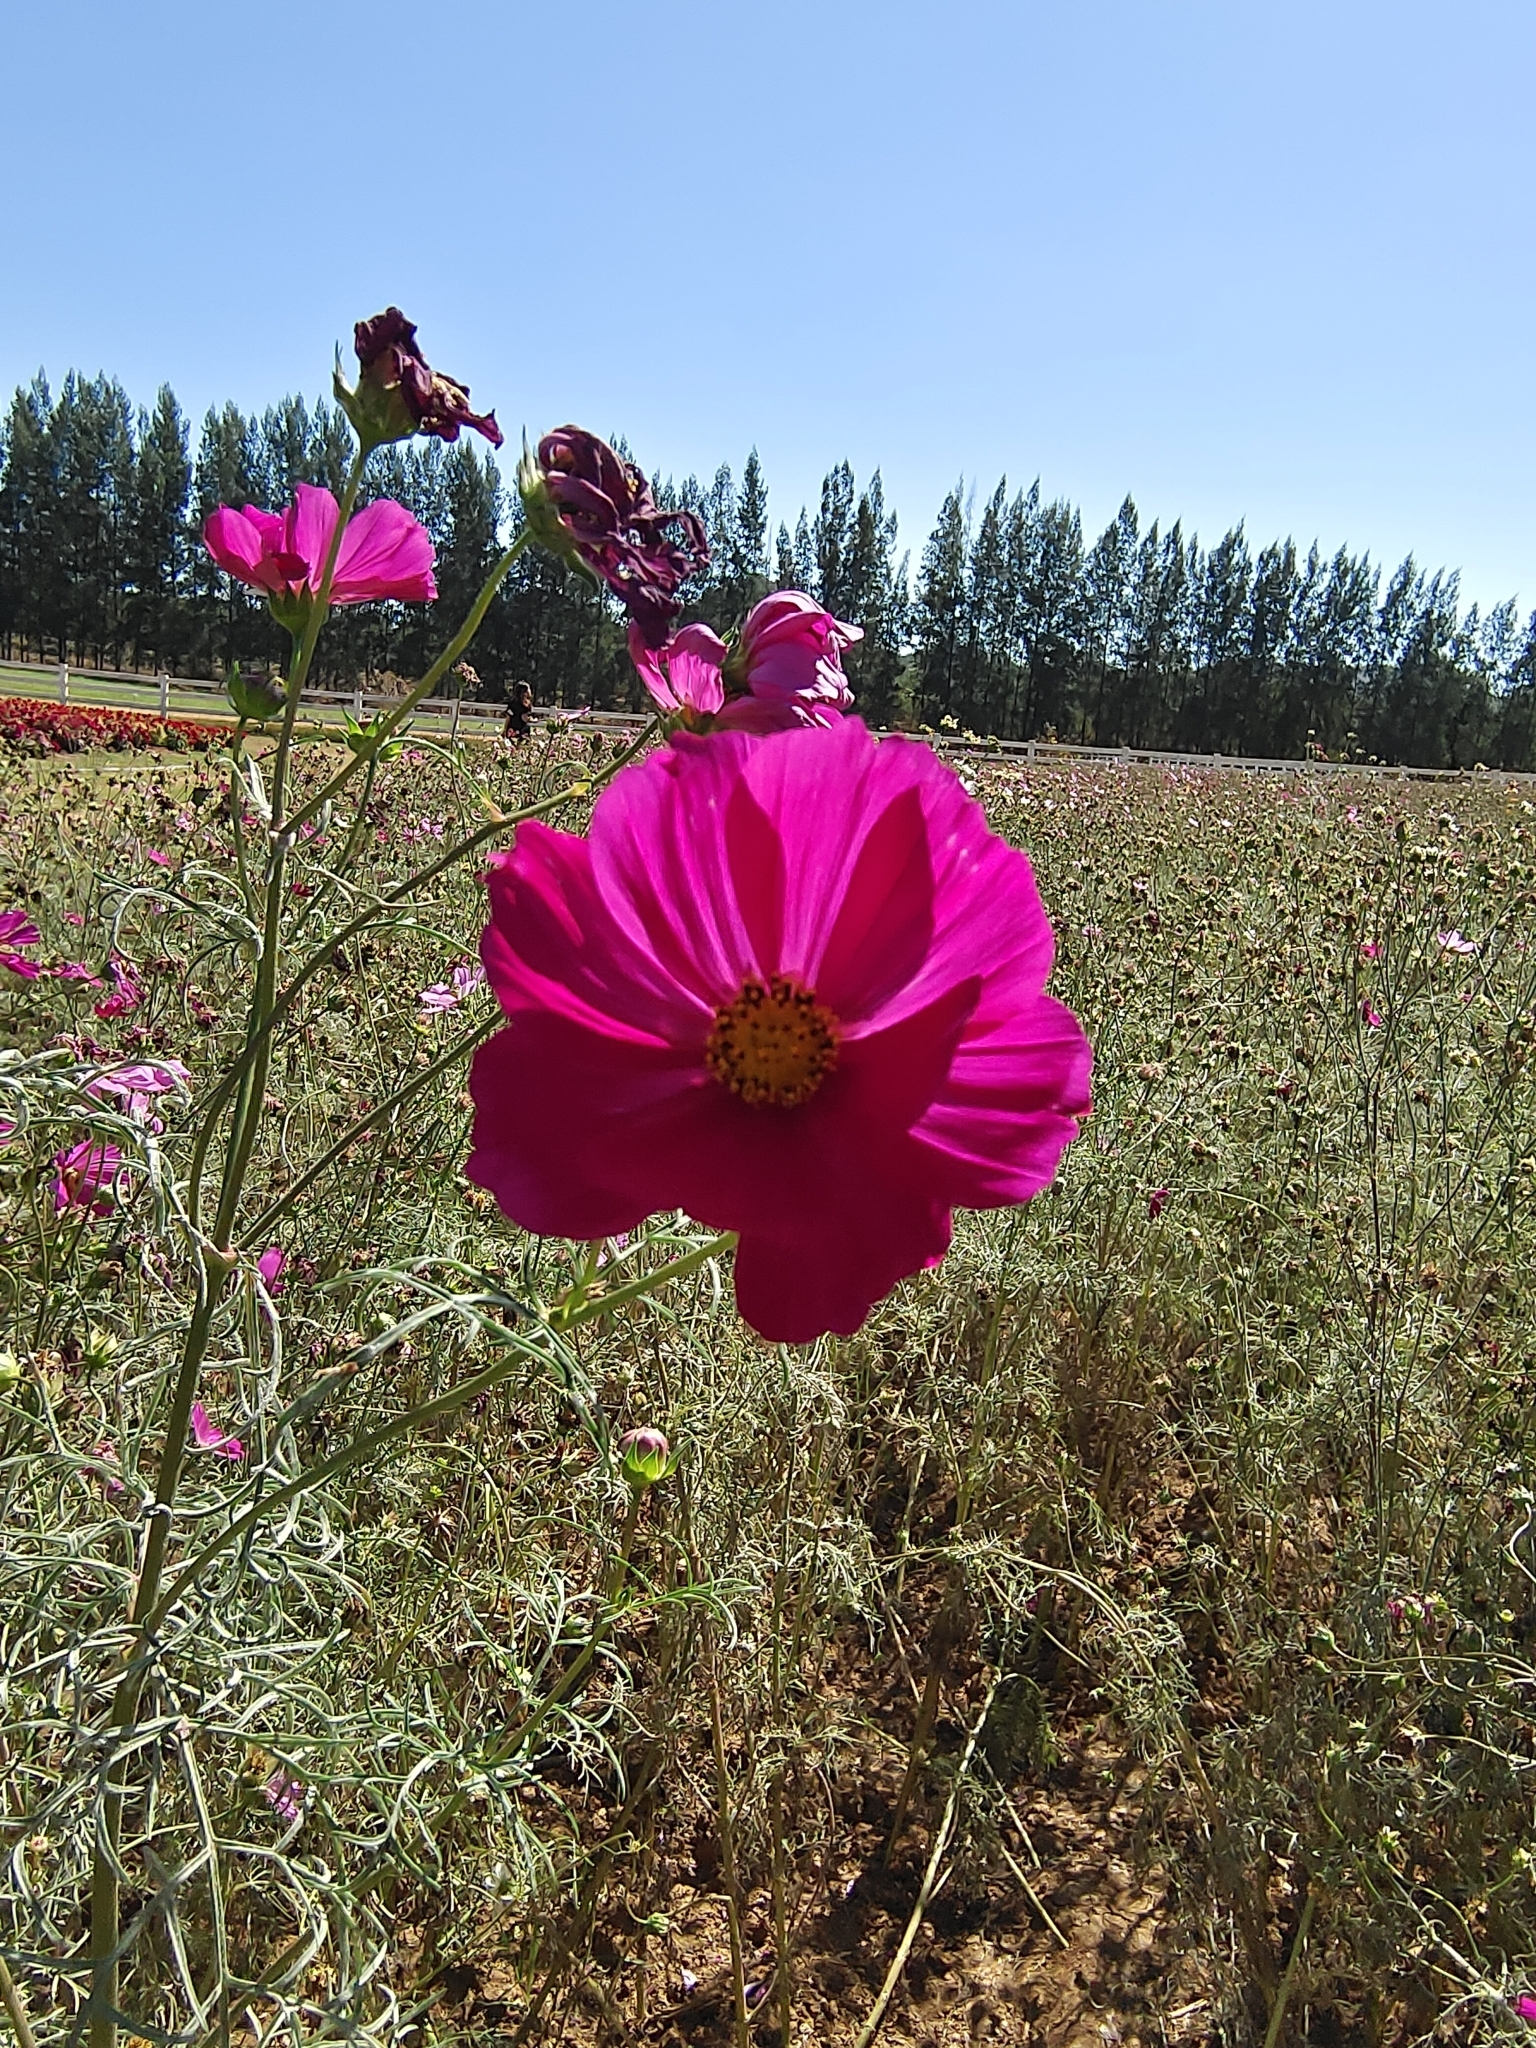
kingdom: Plantae
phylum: Tracheophyta
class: Magnoliopsida
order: Asterales
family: Asteraceae
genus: Cosmos
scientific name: Cosmos bipinnatus
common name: Garden cosmos
